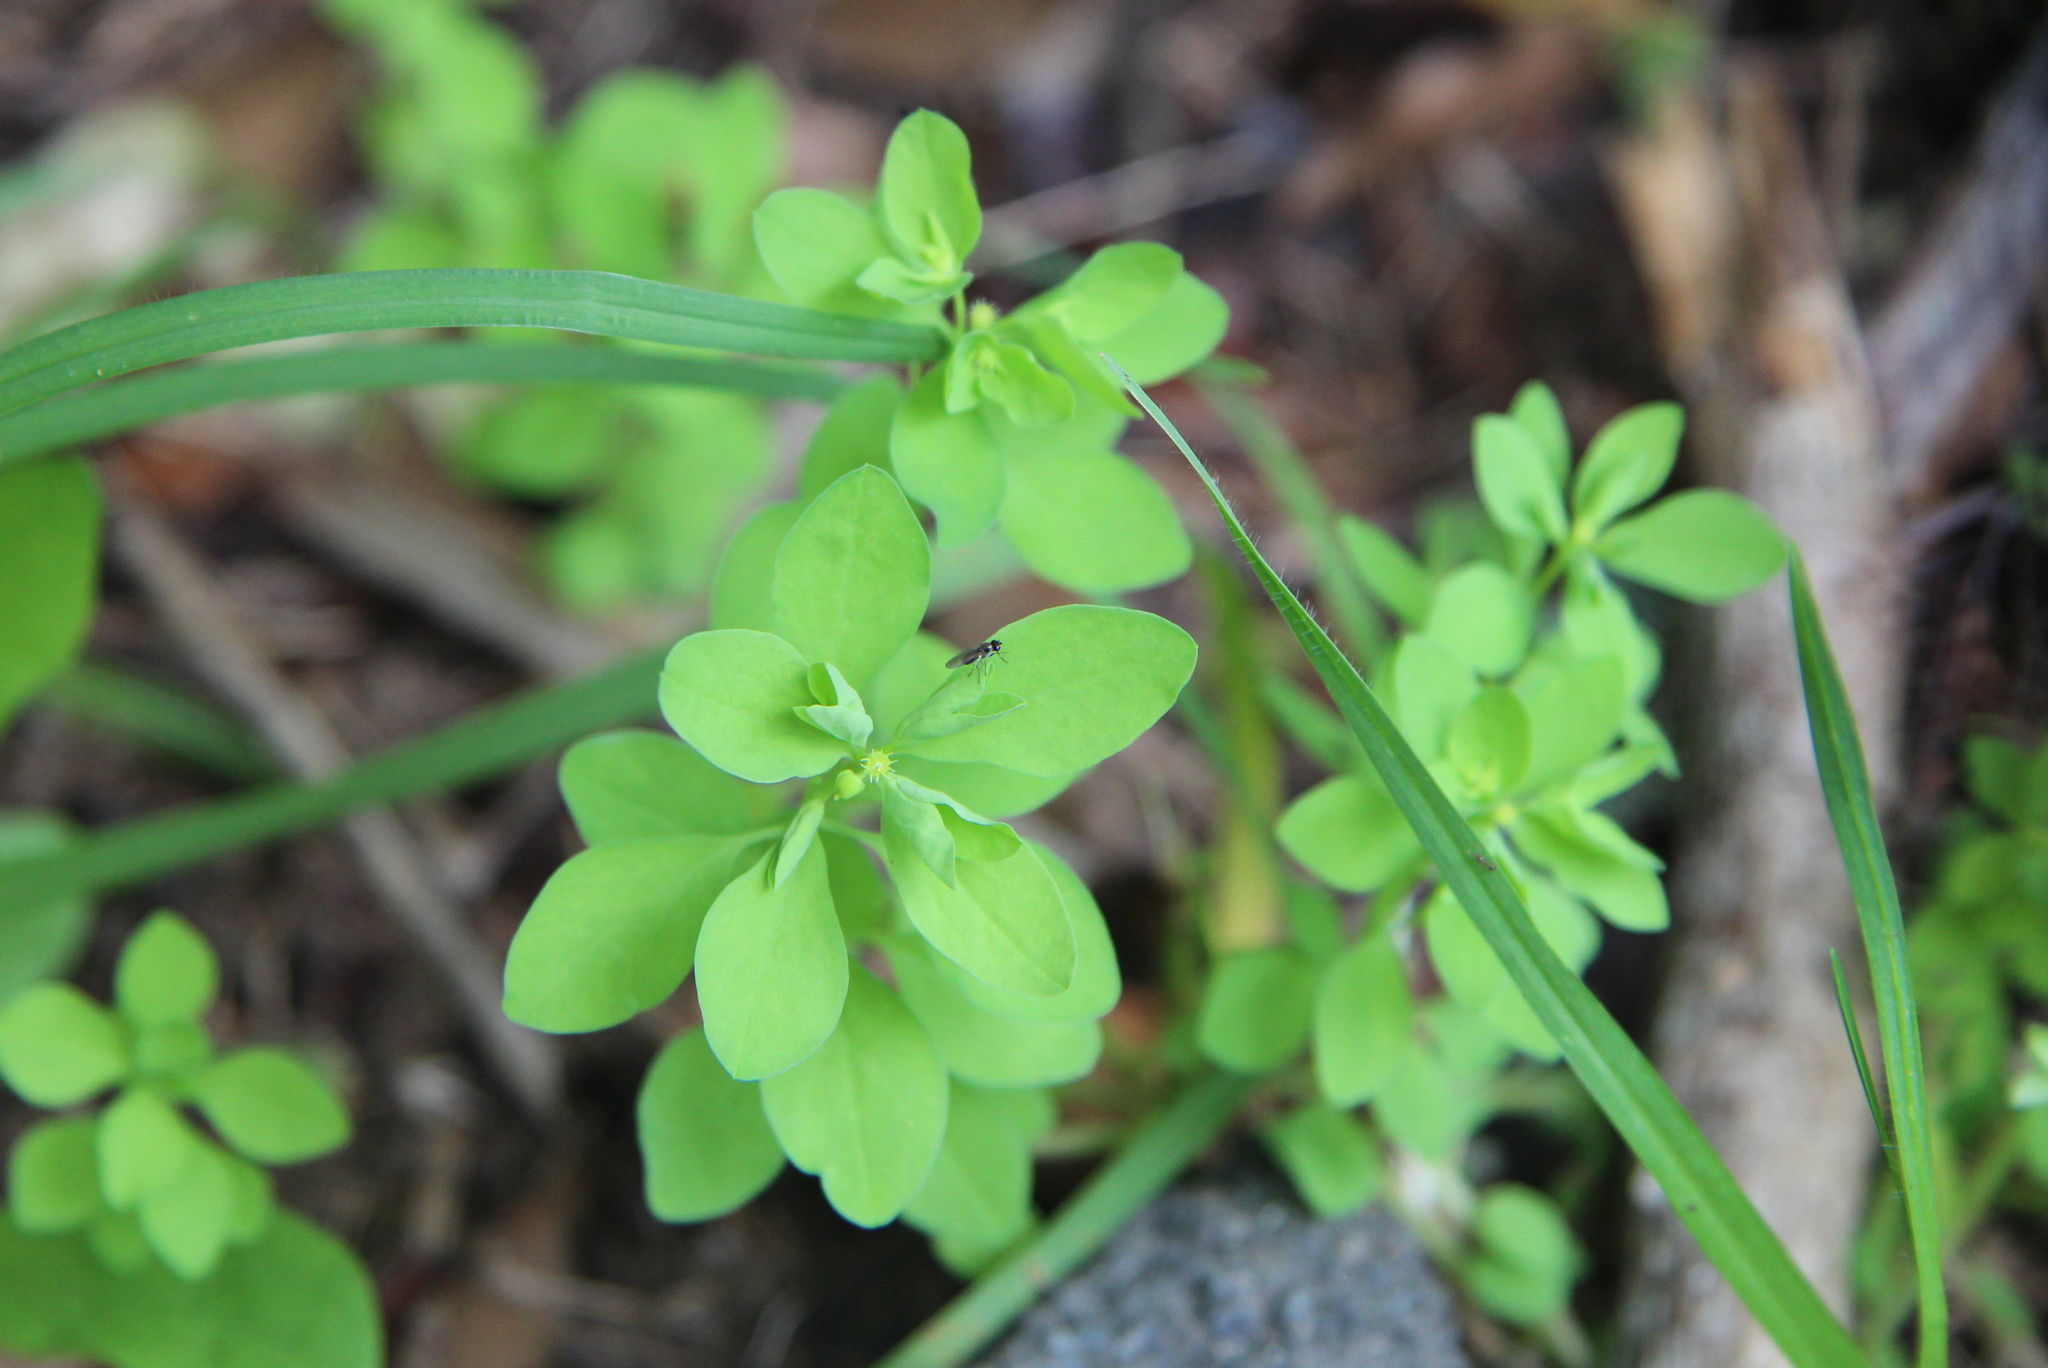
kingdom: Plantae
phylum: Tracheophyta
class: Magnoliopsida
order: Malpighiales
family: Euphorbiaceae
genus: Euphorbia
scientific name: Euphorbia peplus
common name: Petty spurge
